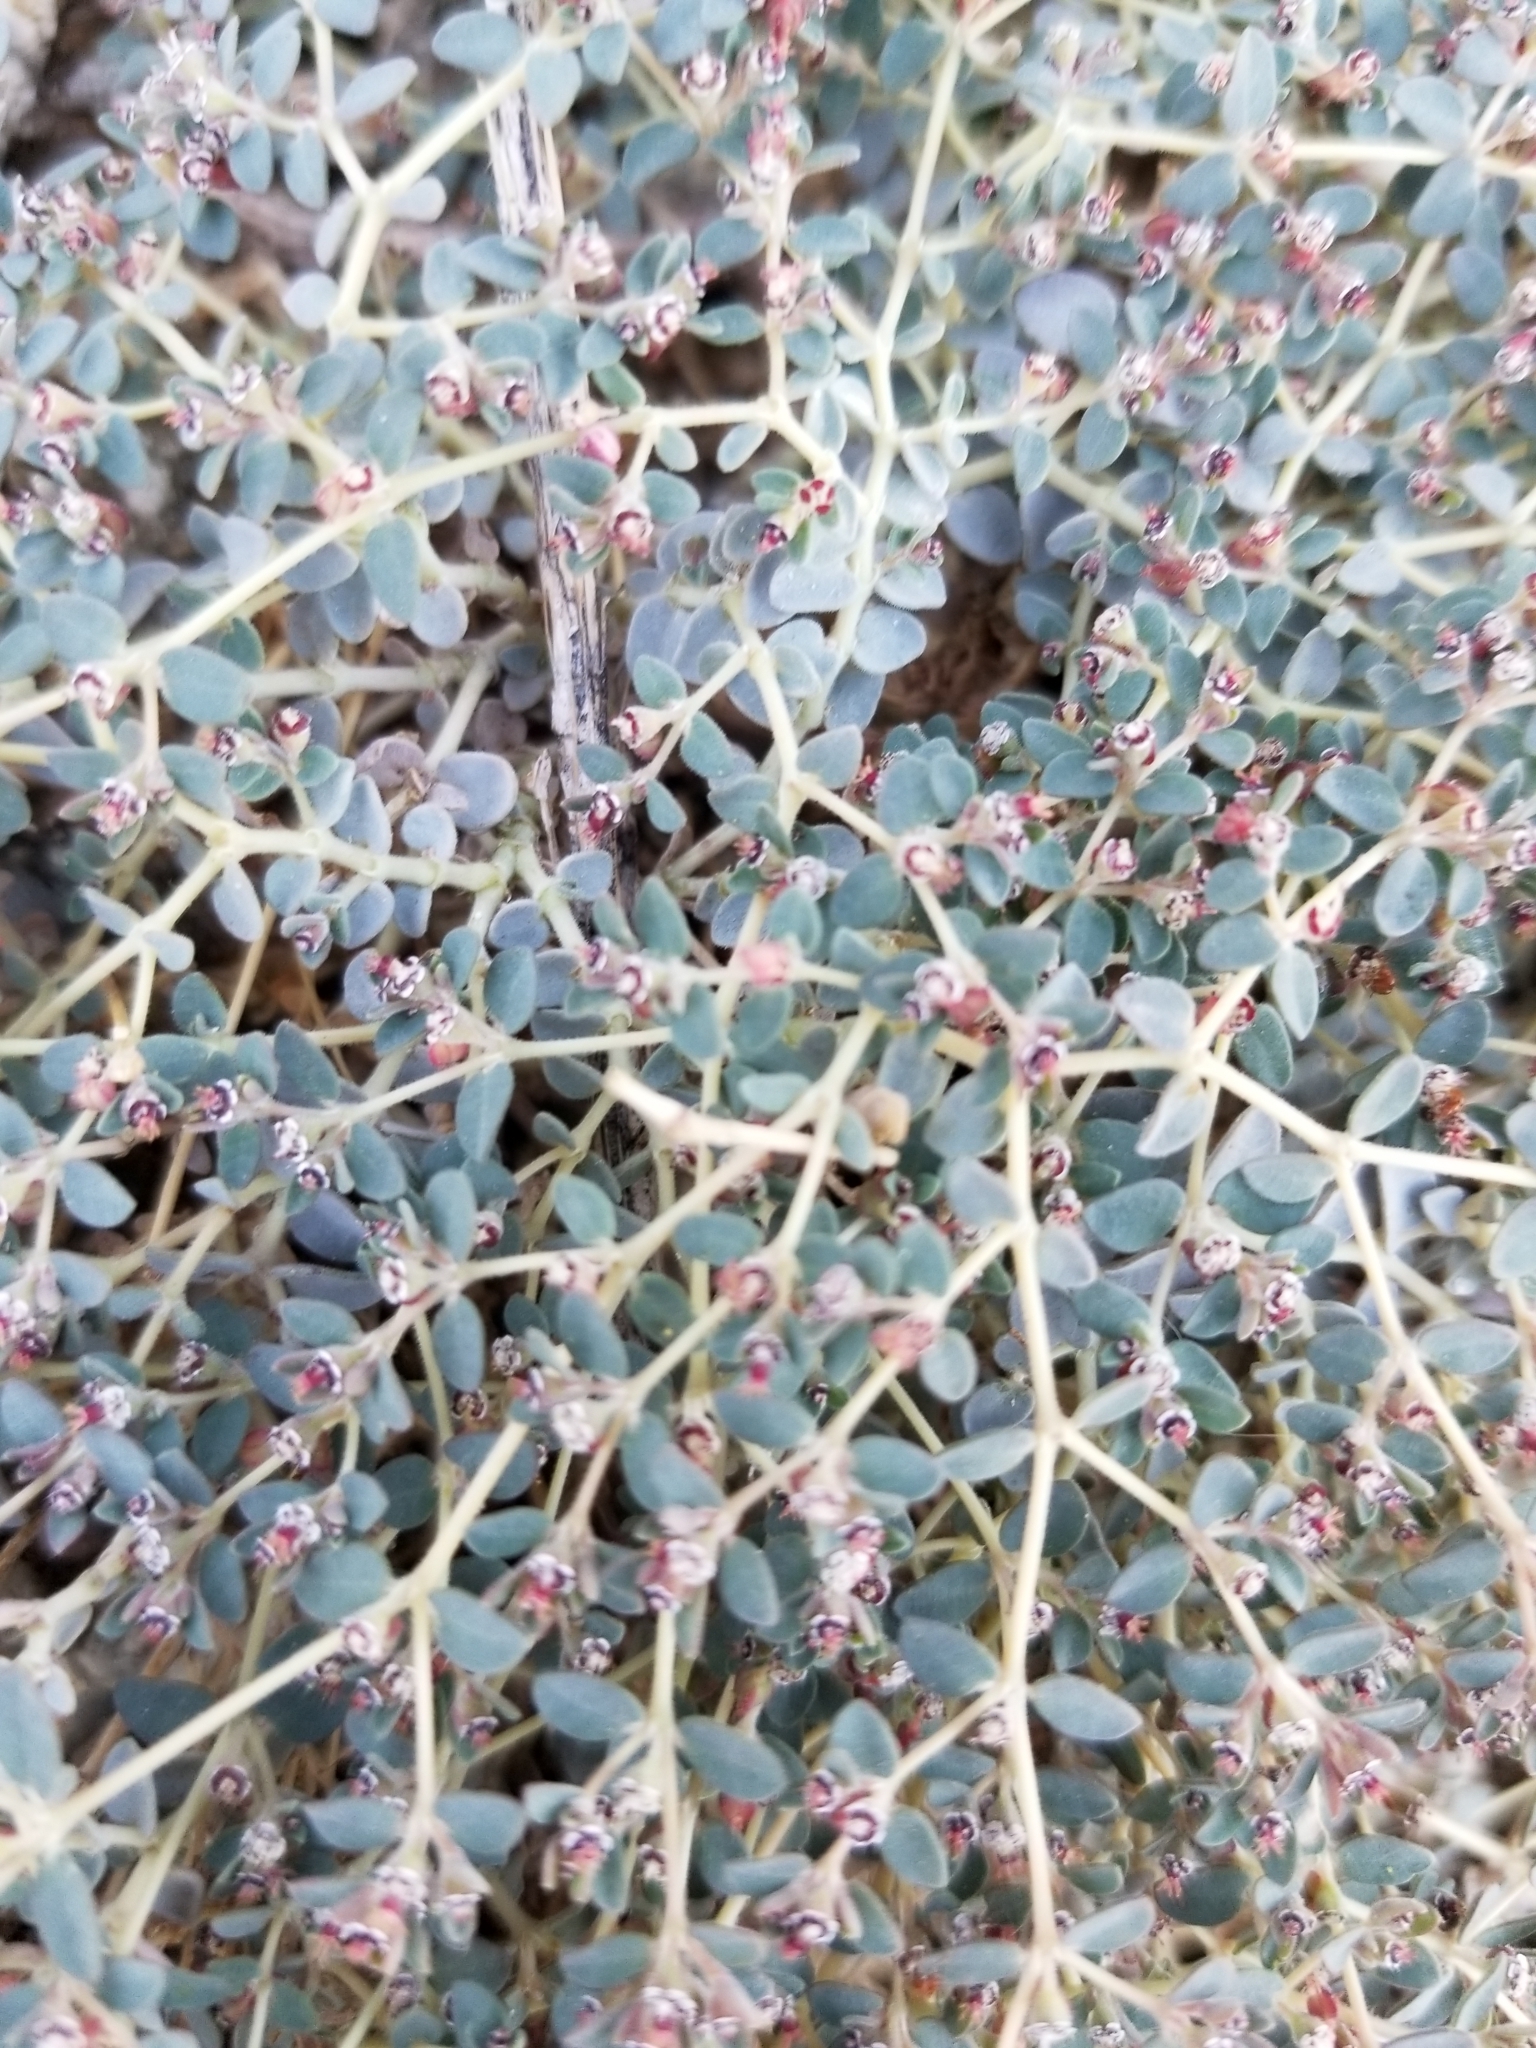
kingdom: Plantae
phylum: Tracheophyta
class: Magnoliopsida
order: Malpighiales
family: Euphorbiaceae
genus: Euphorbia
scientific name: Euphorbia polycarpa
